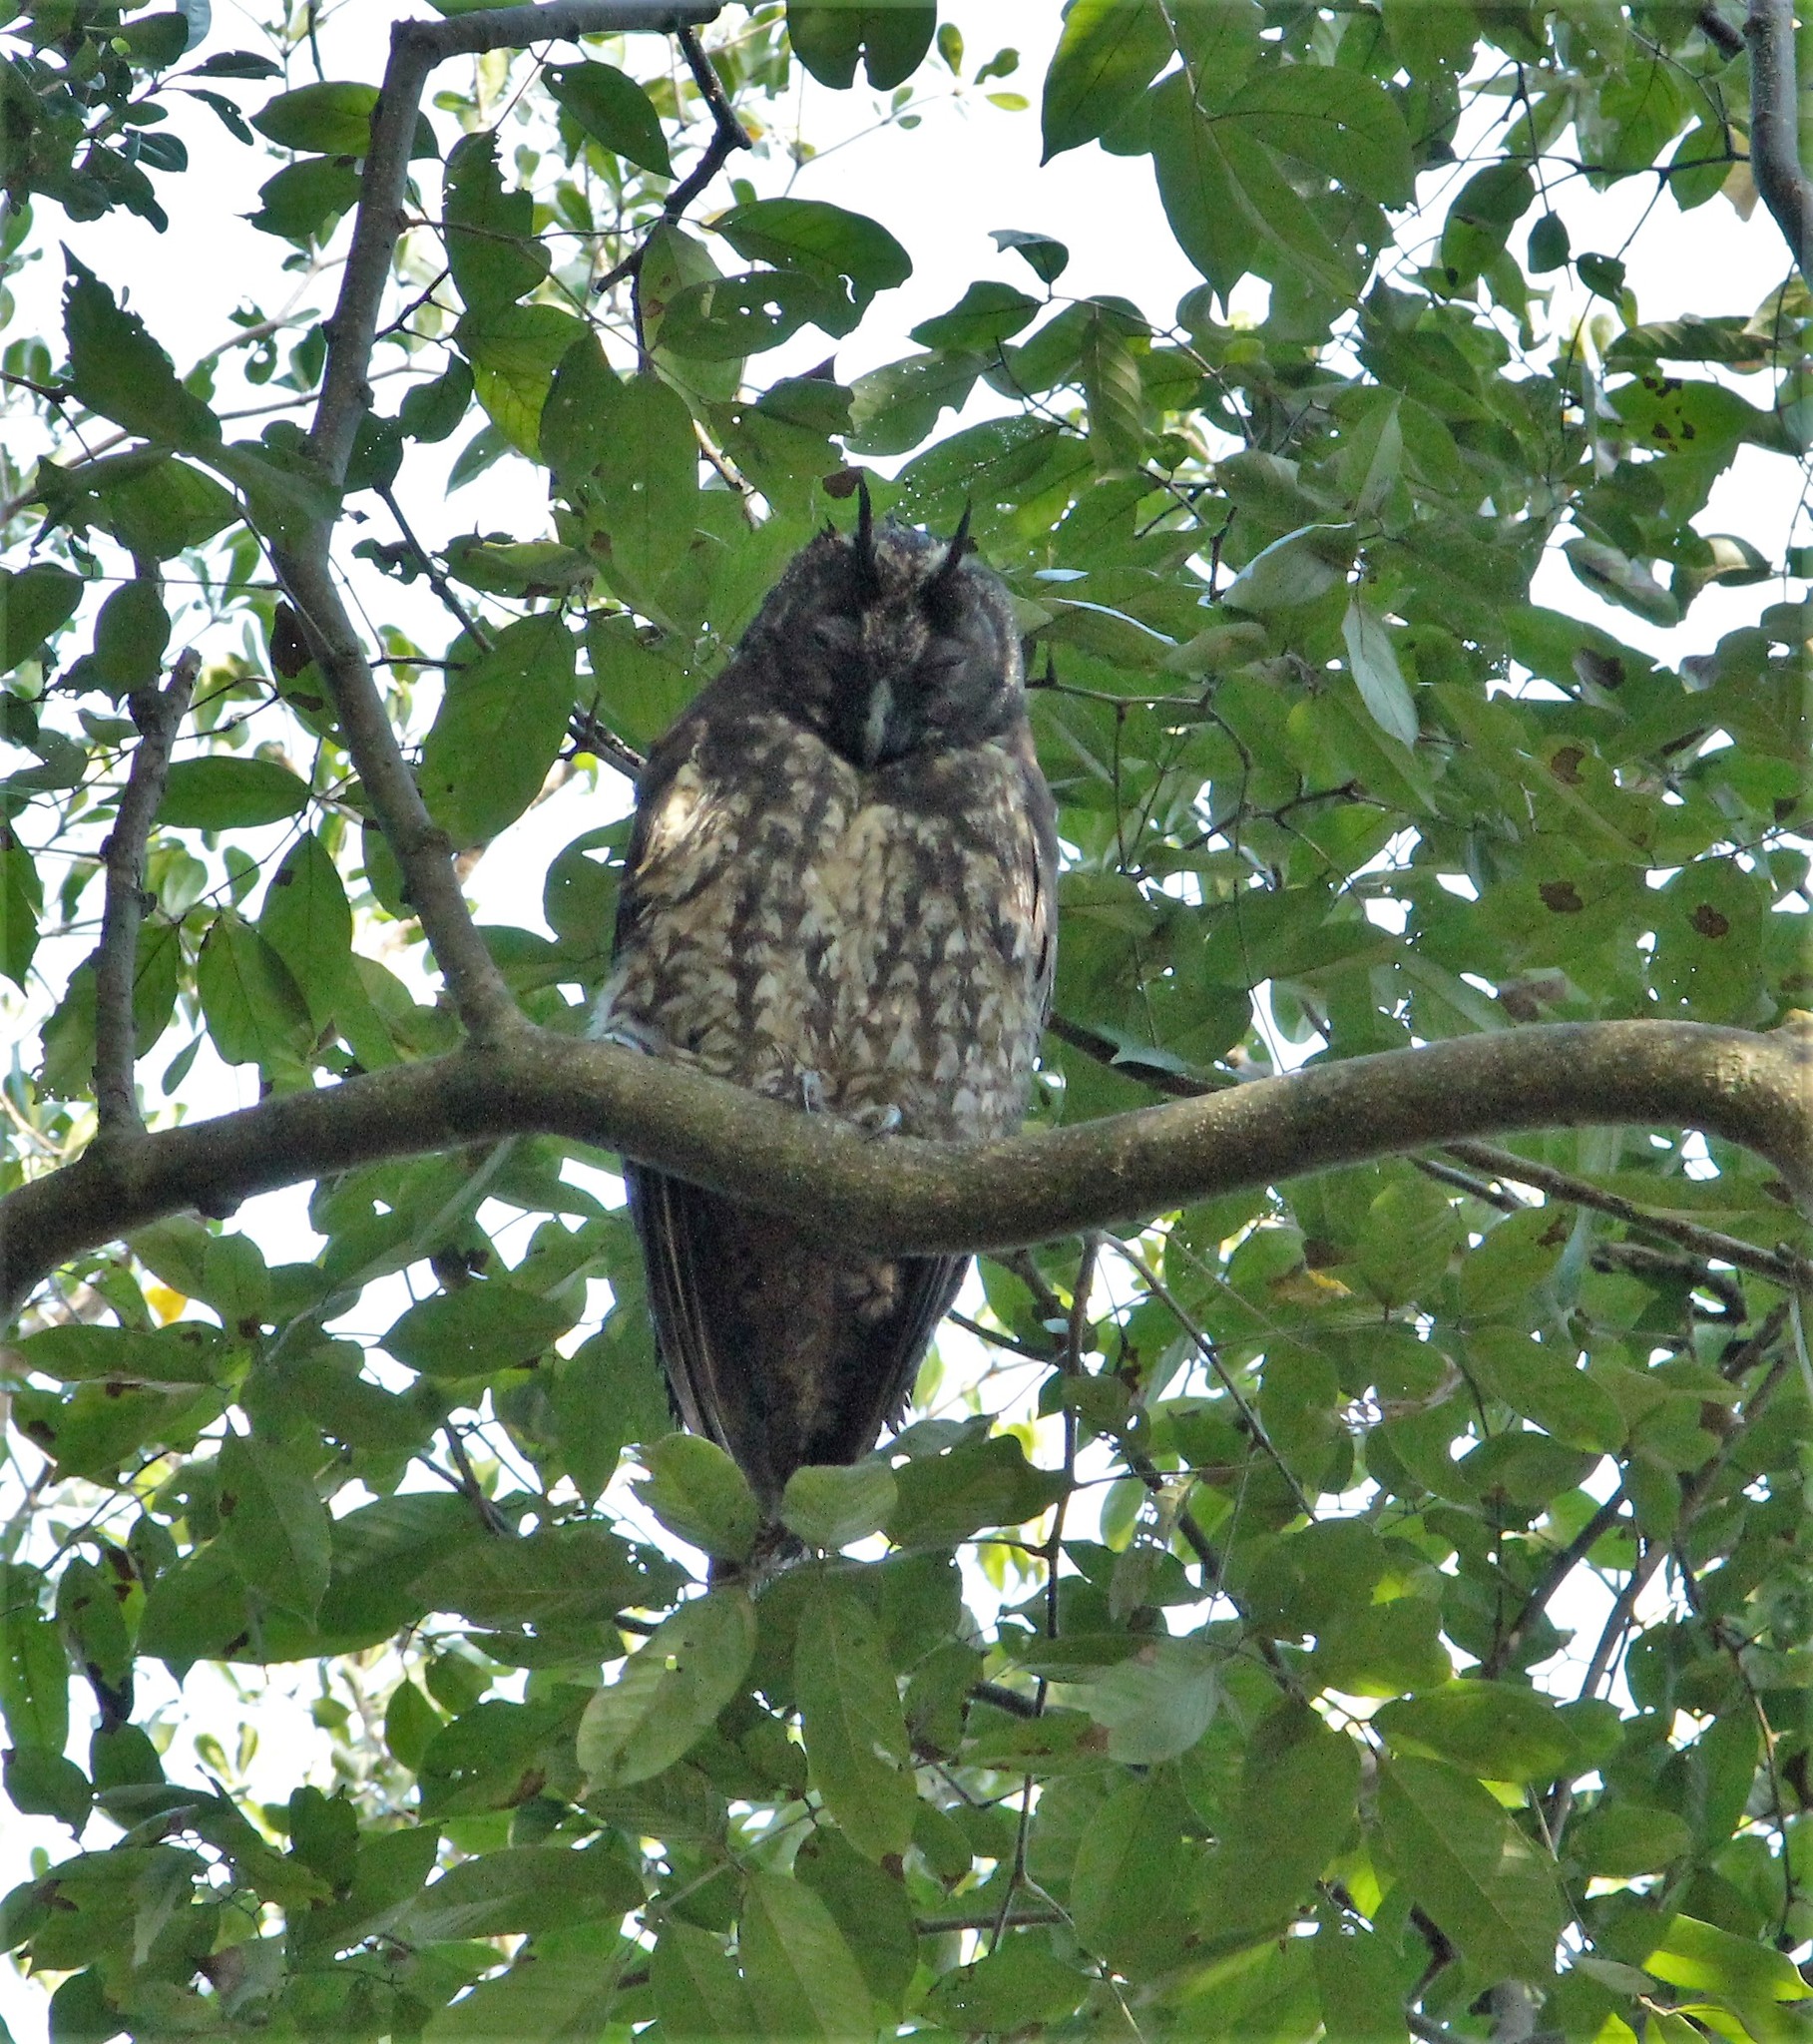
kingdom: Animalia
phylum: Chordata
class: Aves
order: Strigiformes
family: Strigidae
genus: Asio
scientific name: Asio stygius
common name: Stygian owl
